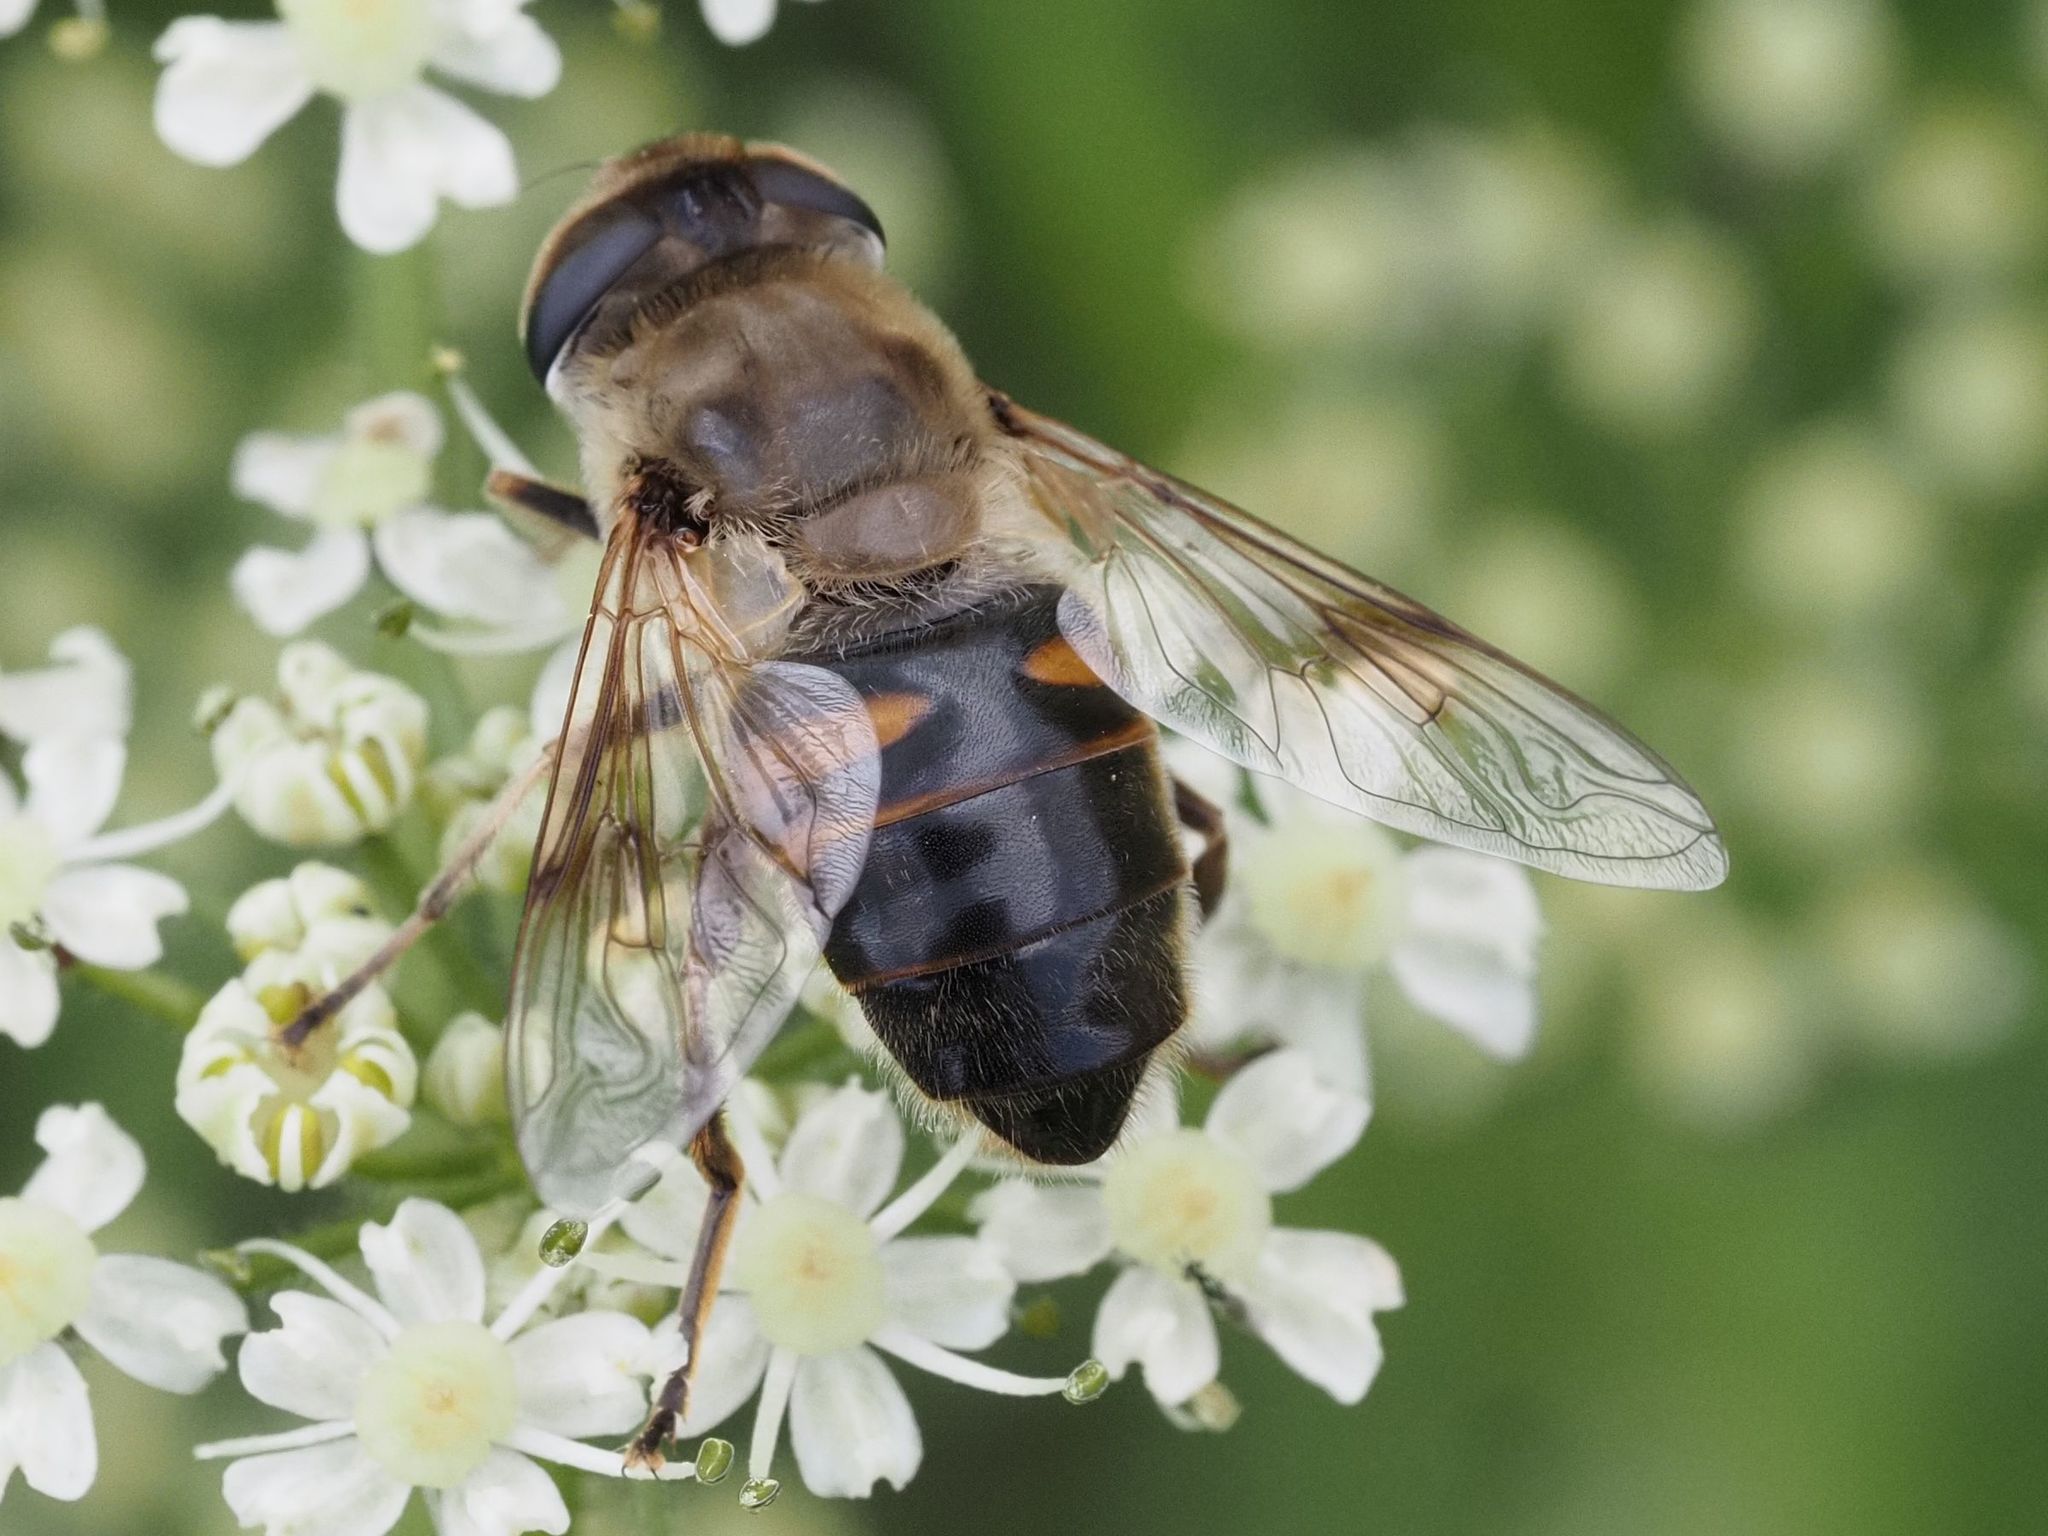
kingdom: Animalia
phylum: Arthropoda
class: Insecta
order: Diptera
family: Syrphidae
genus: Eristalis
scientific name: Eristalis tenax
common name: Drone fly
